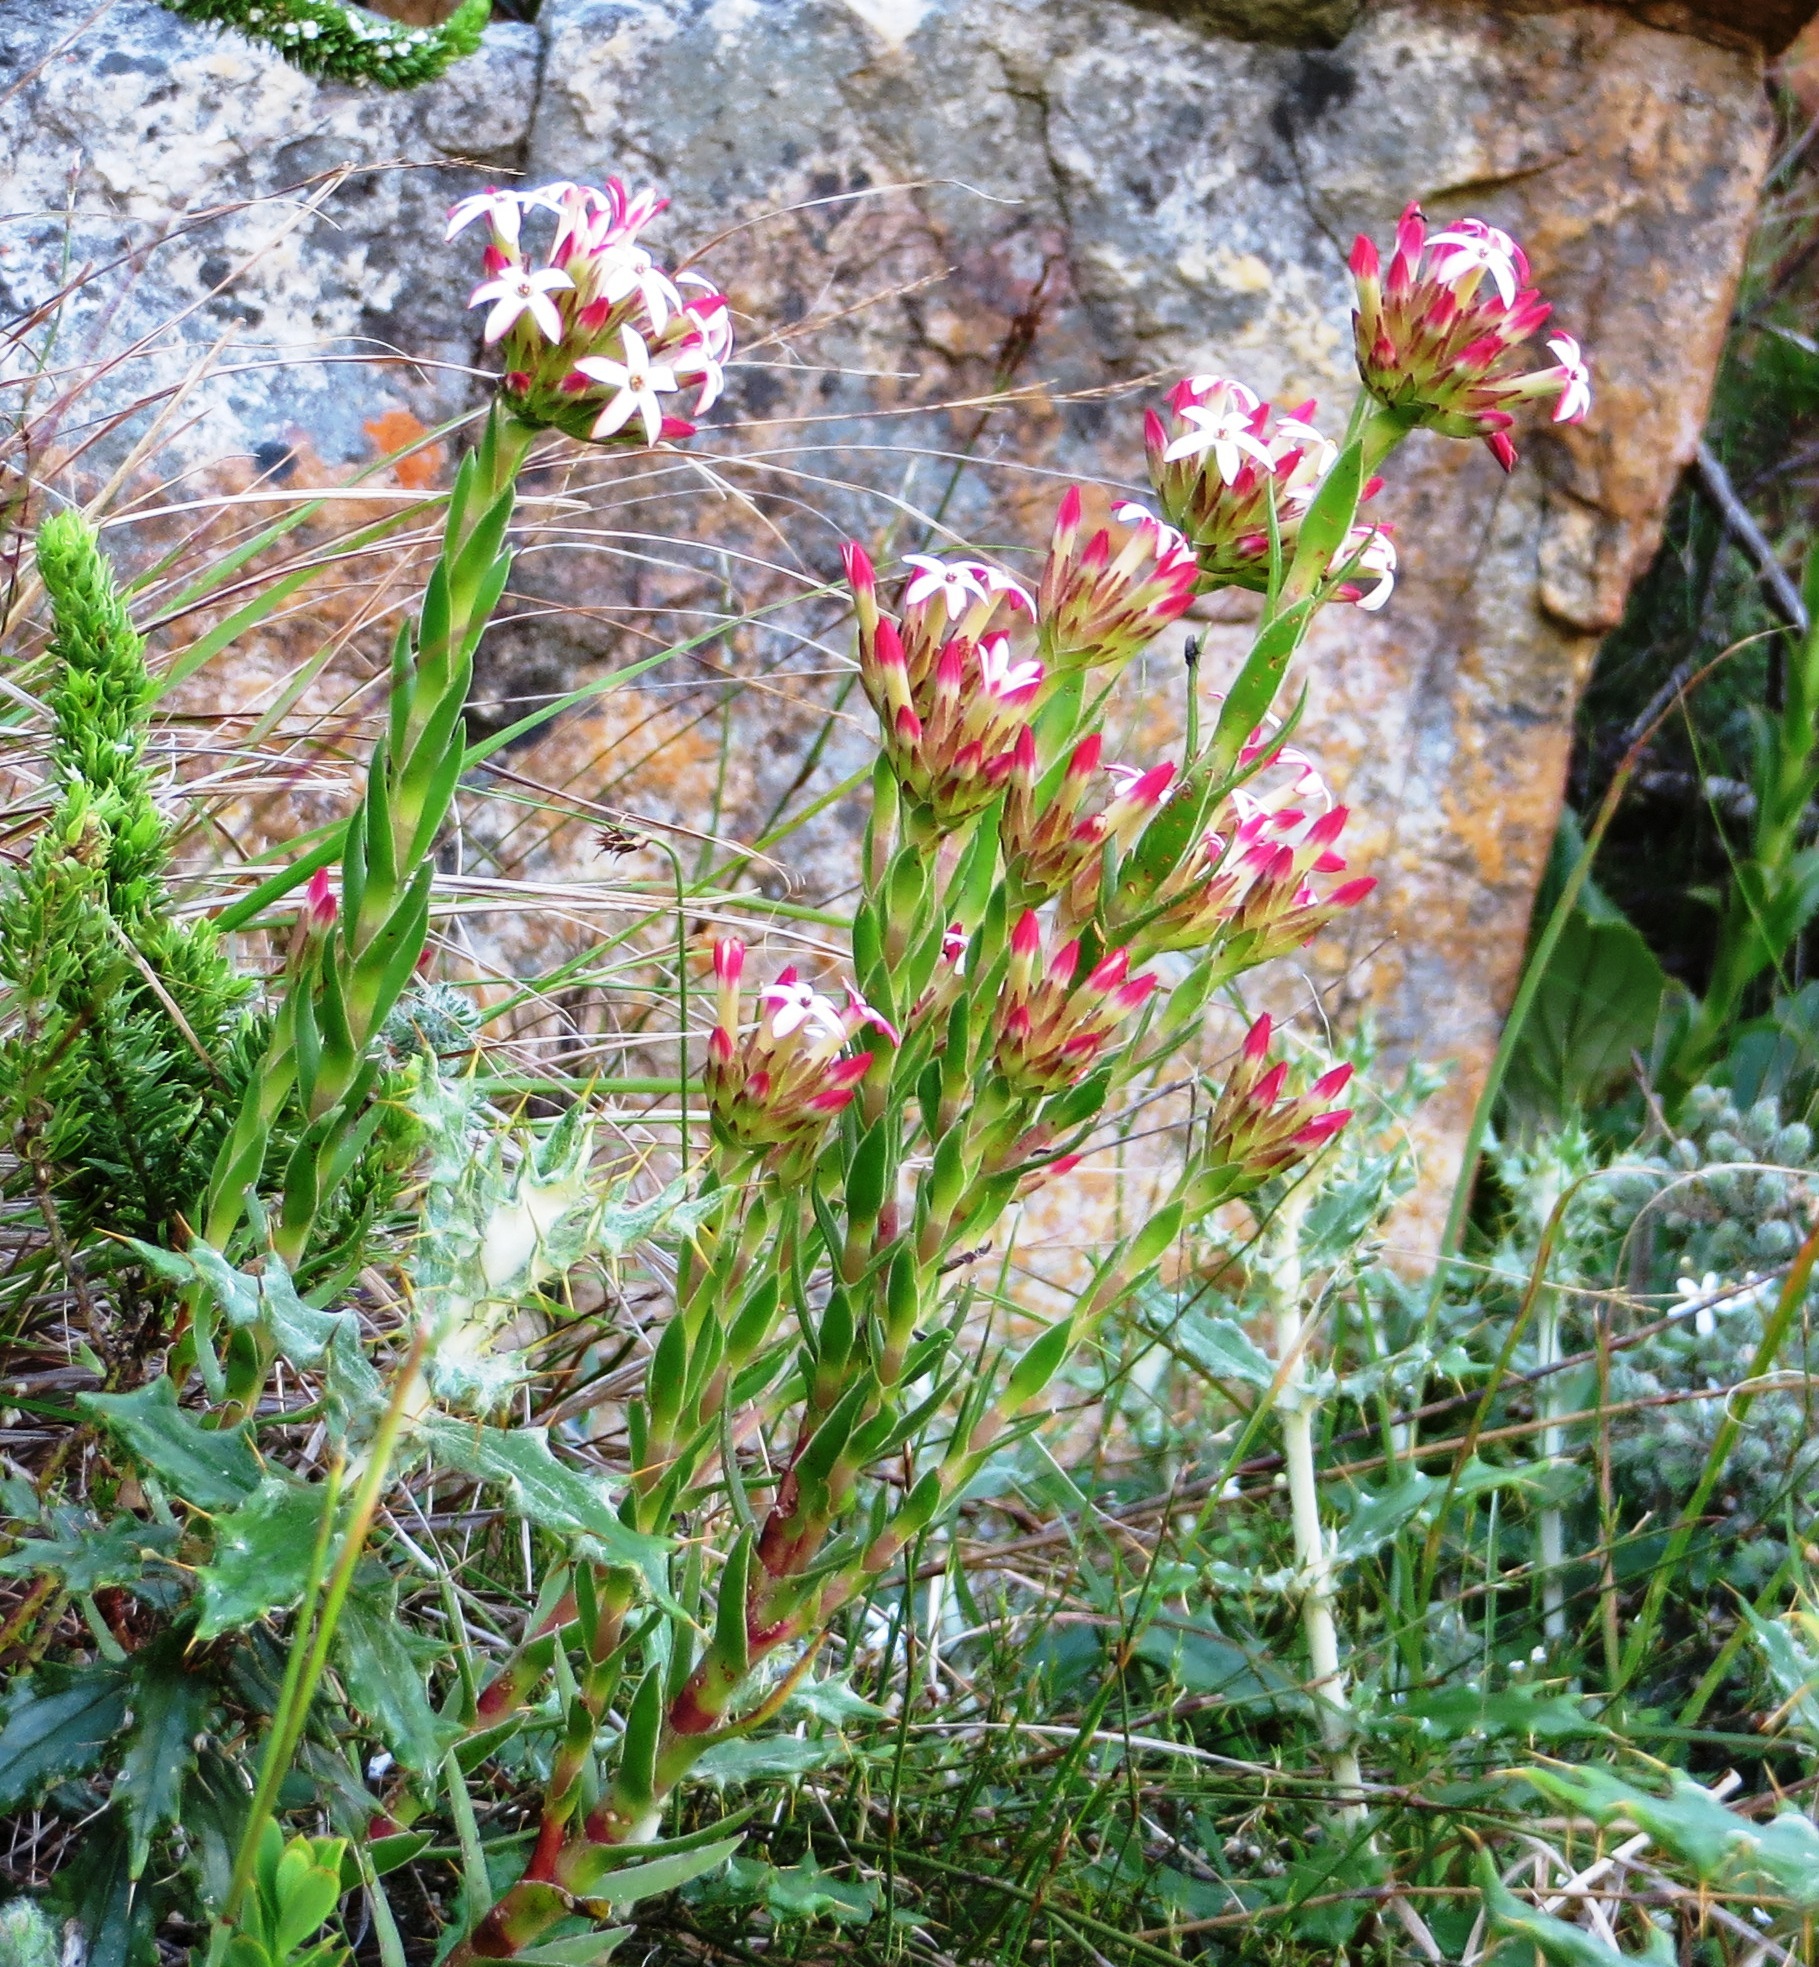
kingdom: Plantae
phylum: Tracheophyta
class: Magnoliopsida
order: Saxifragales
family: Crassulaceae
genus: Crassula
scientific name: Crassula fascicularis
